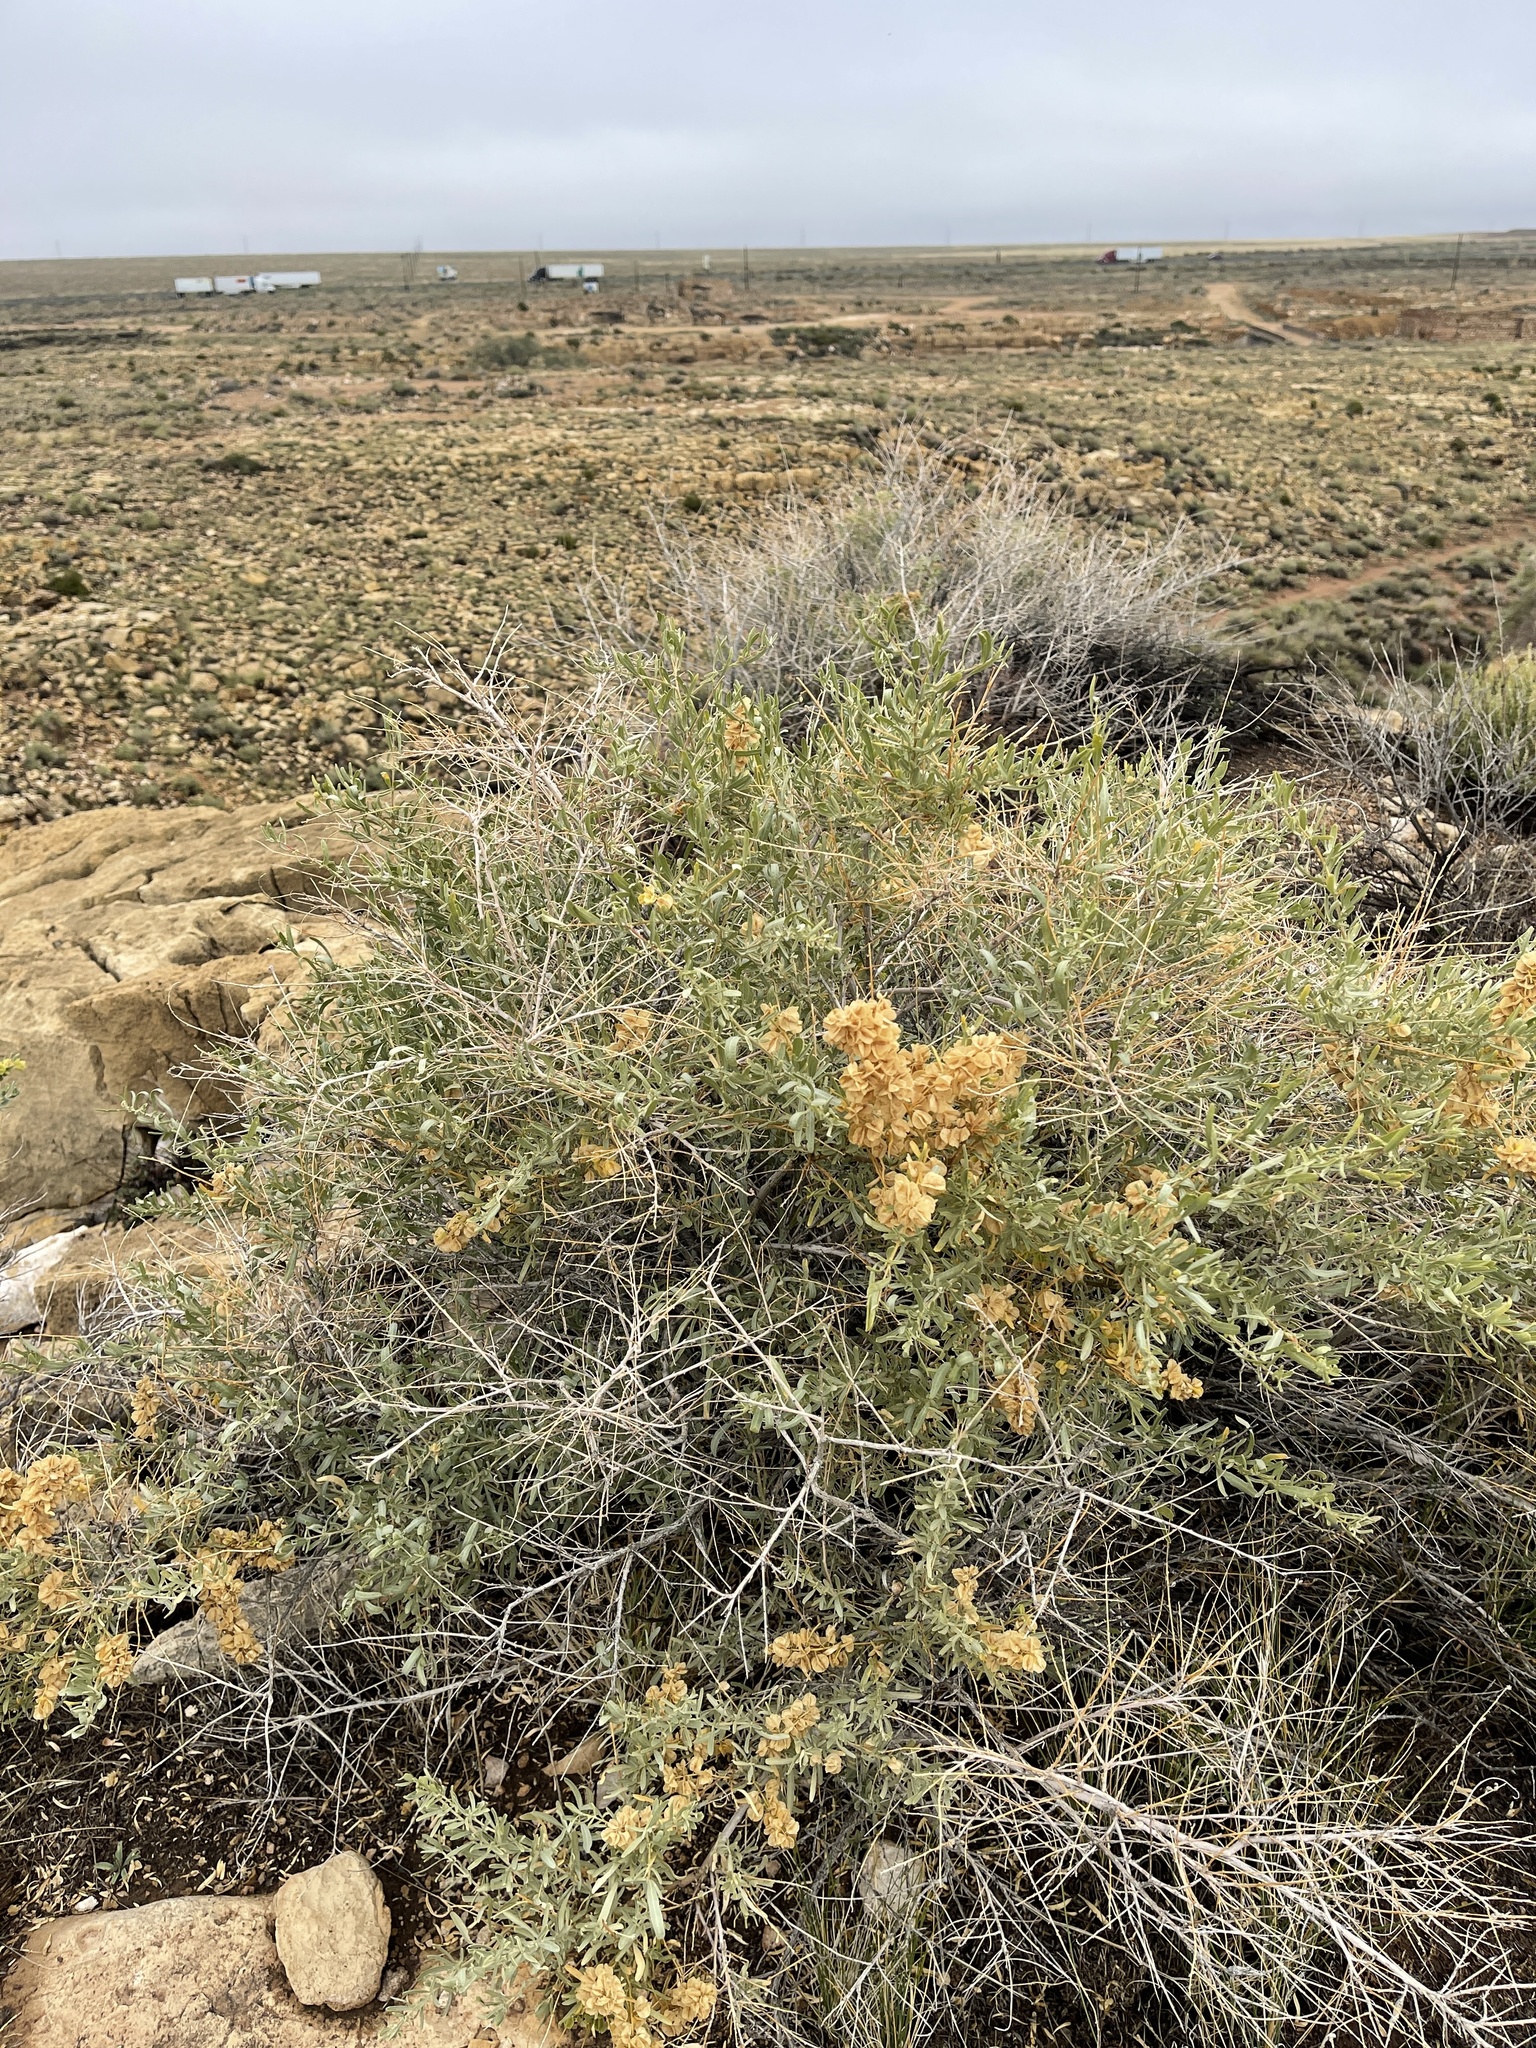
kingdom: Plantae
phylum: Tracheophyta
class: Magnoliopsida
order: Caryophyllales
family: Amaranthaceae
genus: Atriplex
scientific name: Atriplex canescens
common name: Four-wing saltbush
